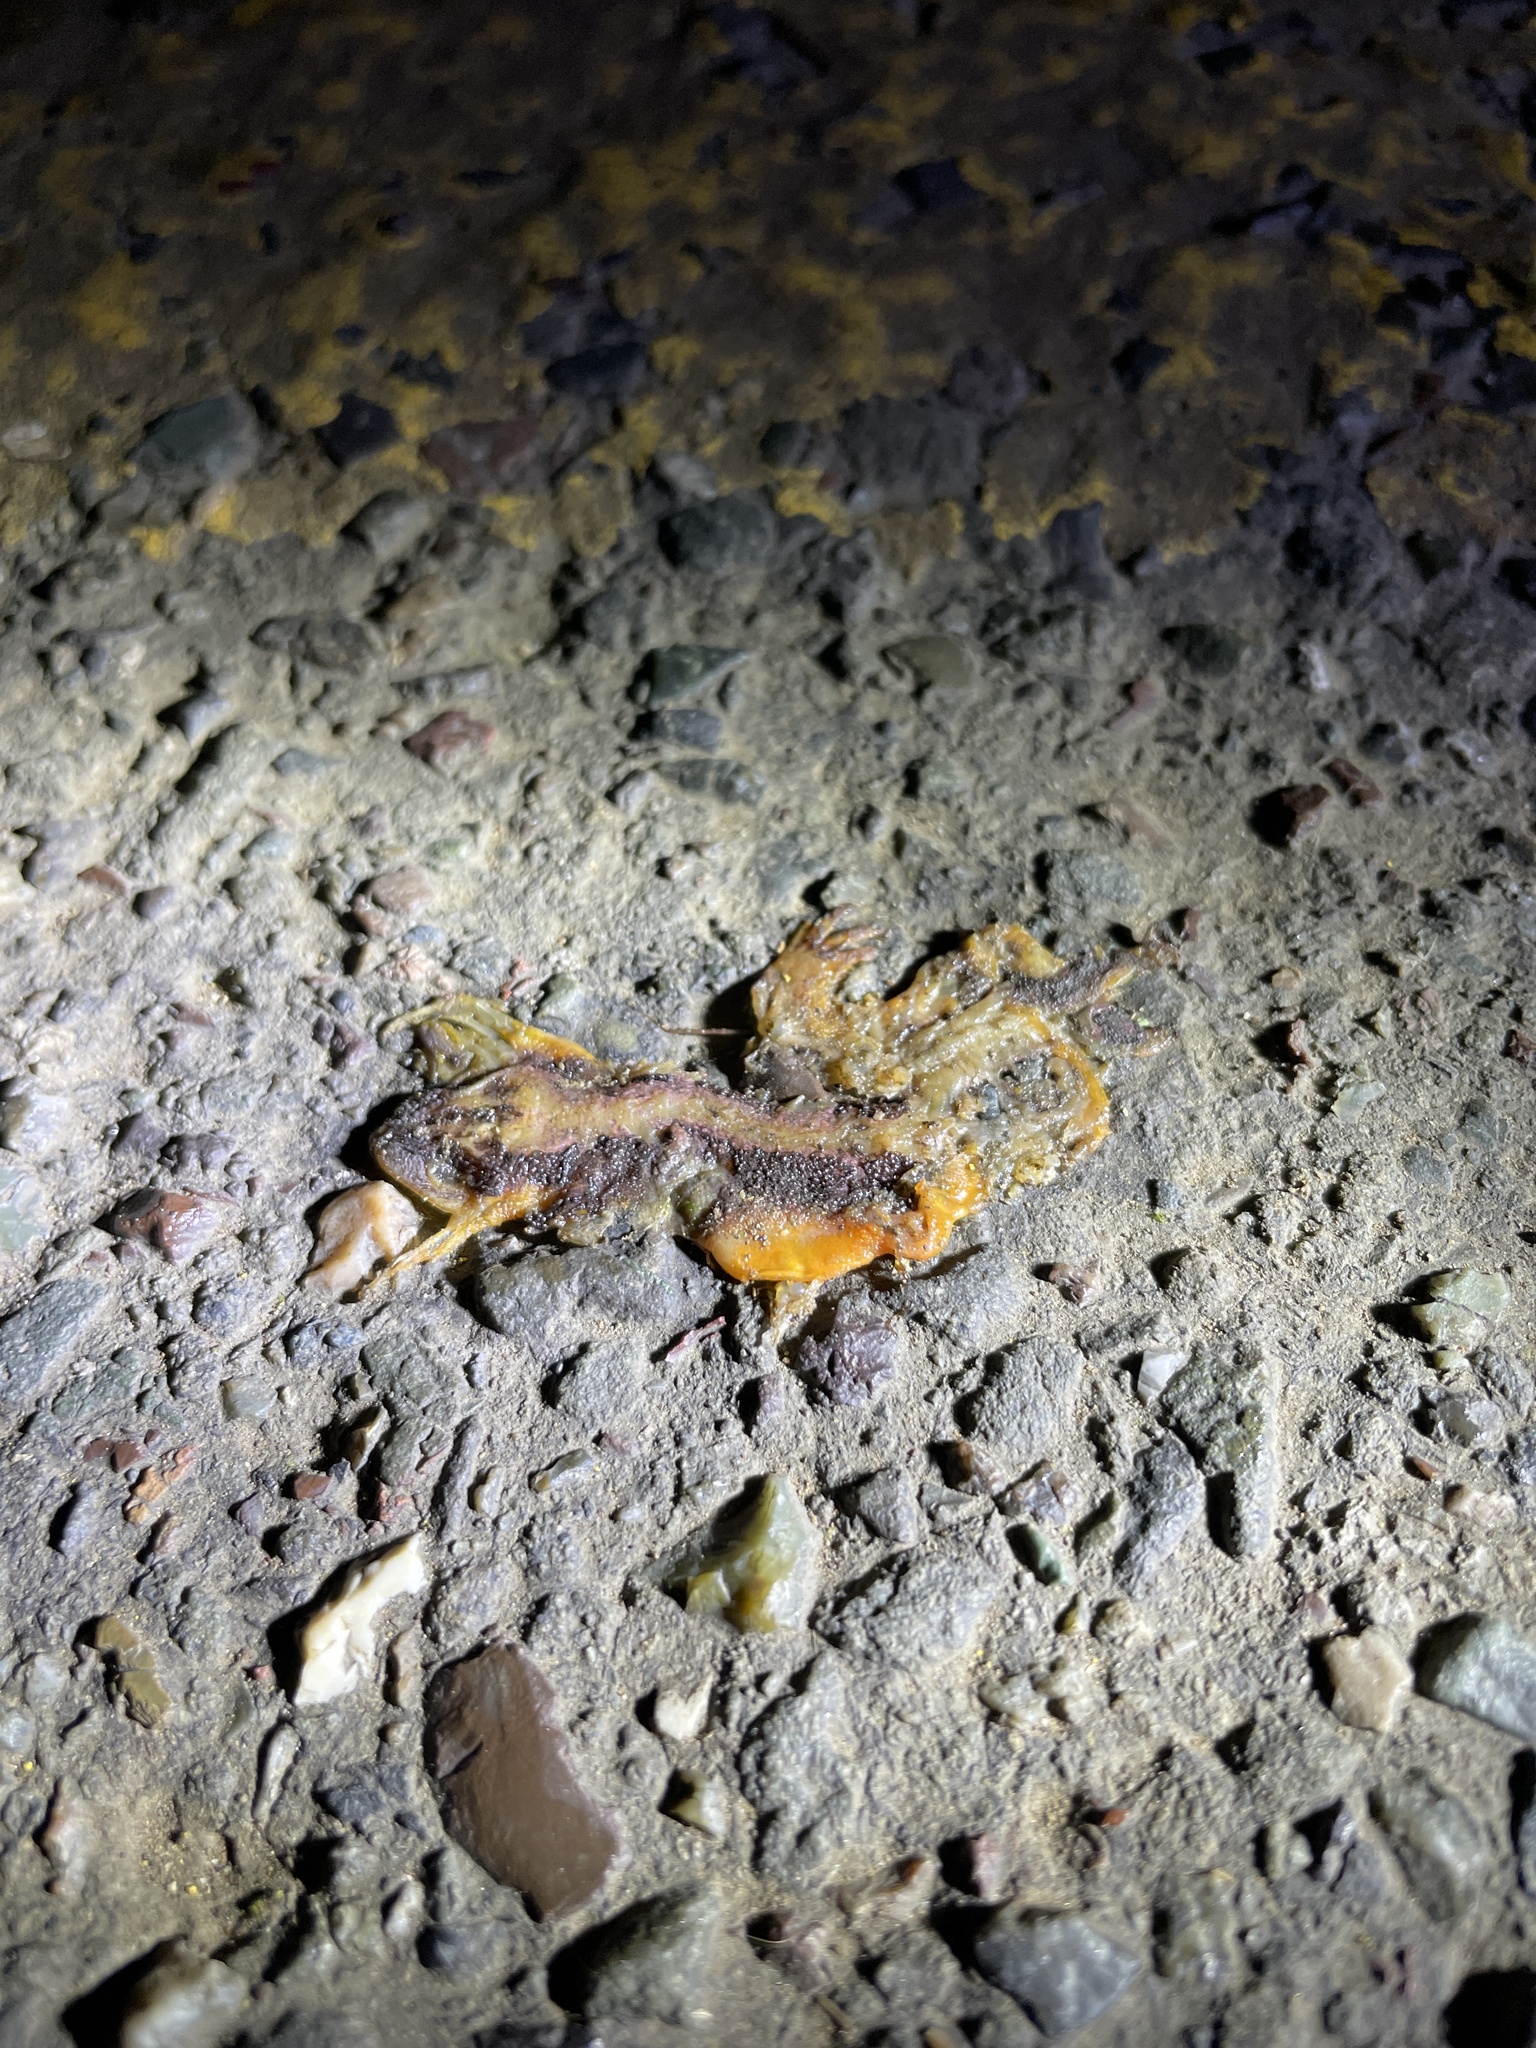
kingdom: Animalia
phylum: Chordata
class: Amphibia
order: Caudata
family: Salamandridae
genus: Taricha
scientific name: Taricha
